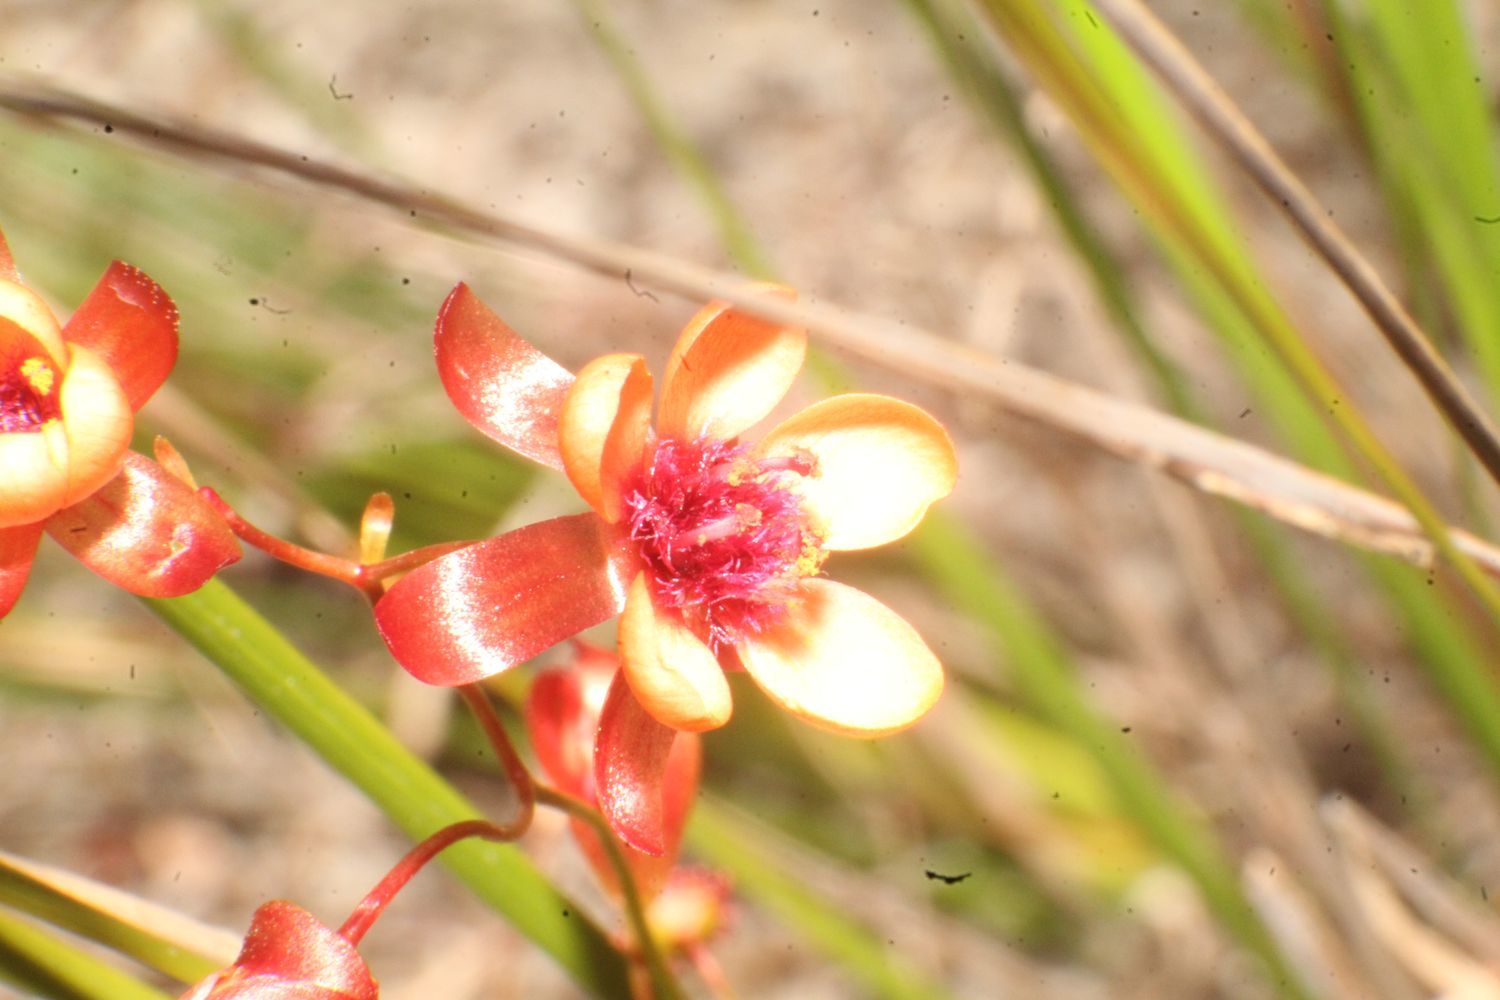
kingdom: Plantae
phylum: Tracheophyta
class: Magnoliopsida
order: Caryophyllales
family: Droseraceae
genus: Drosera
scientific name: Drosera microphylla
